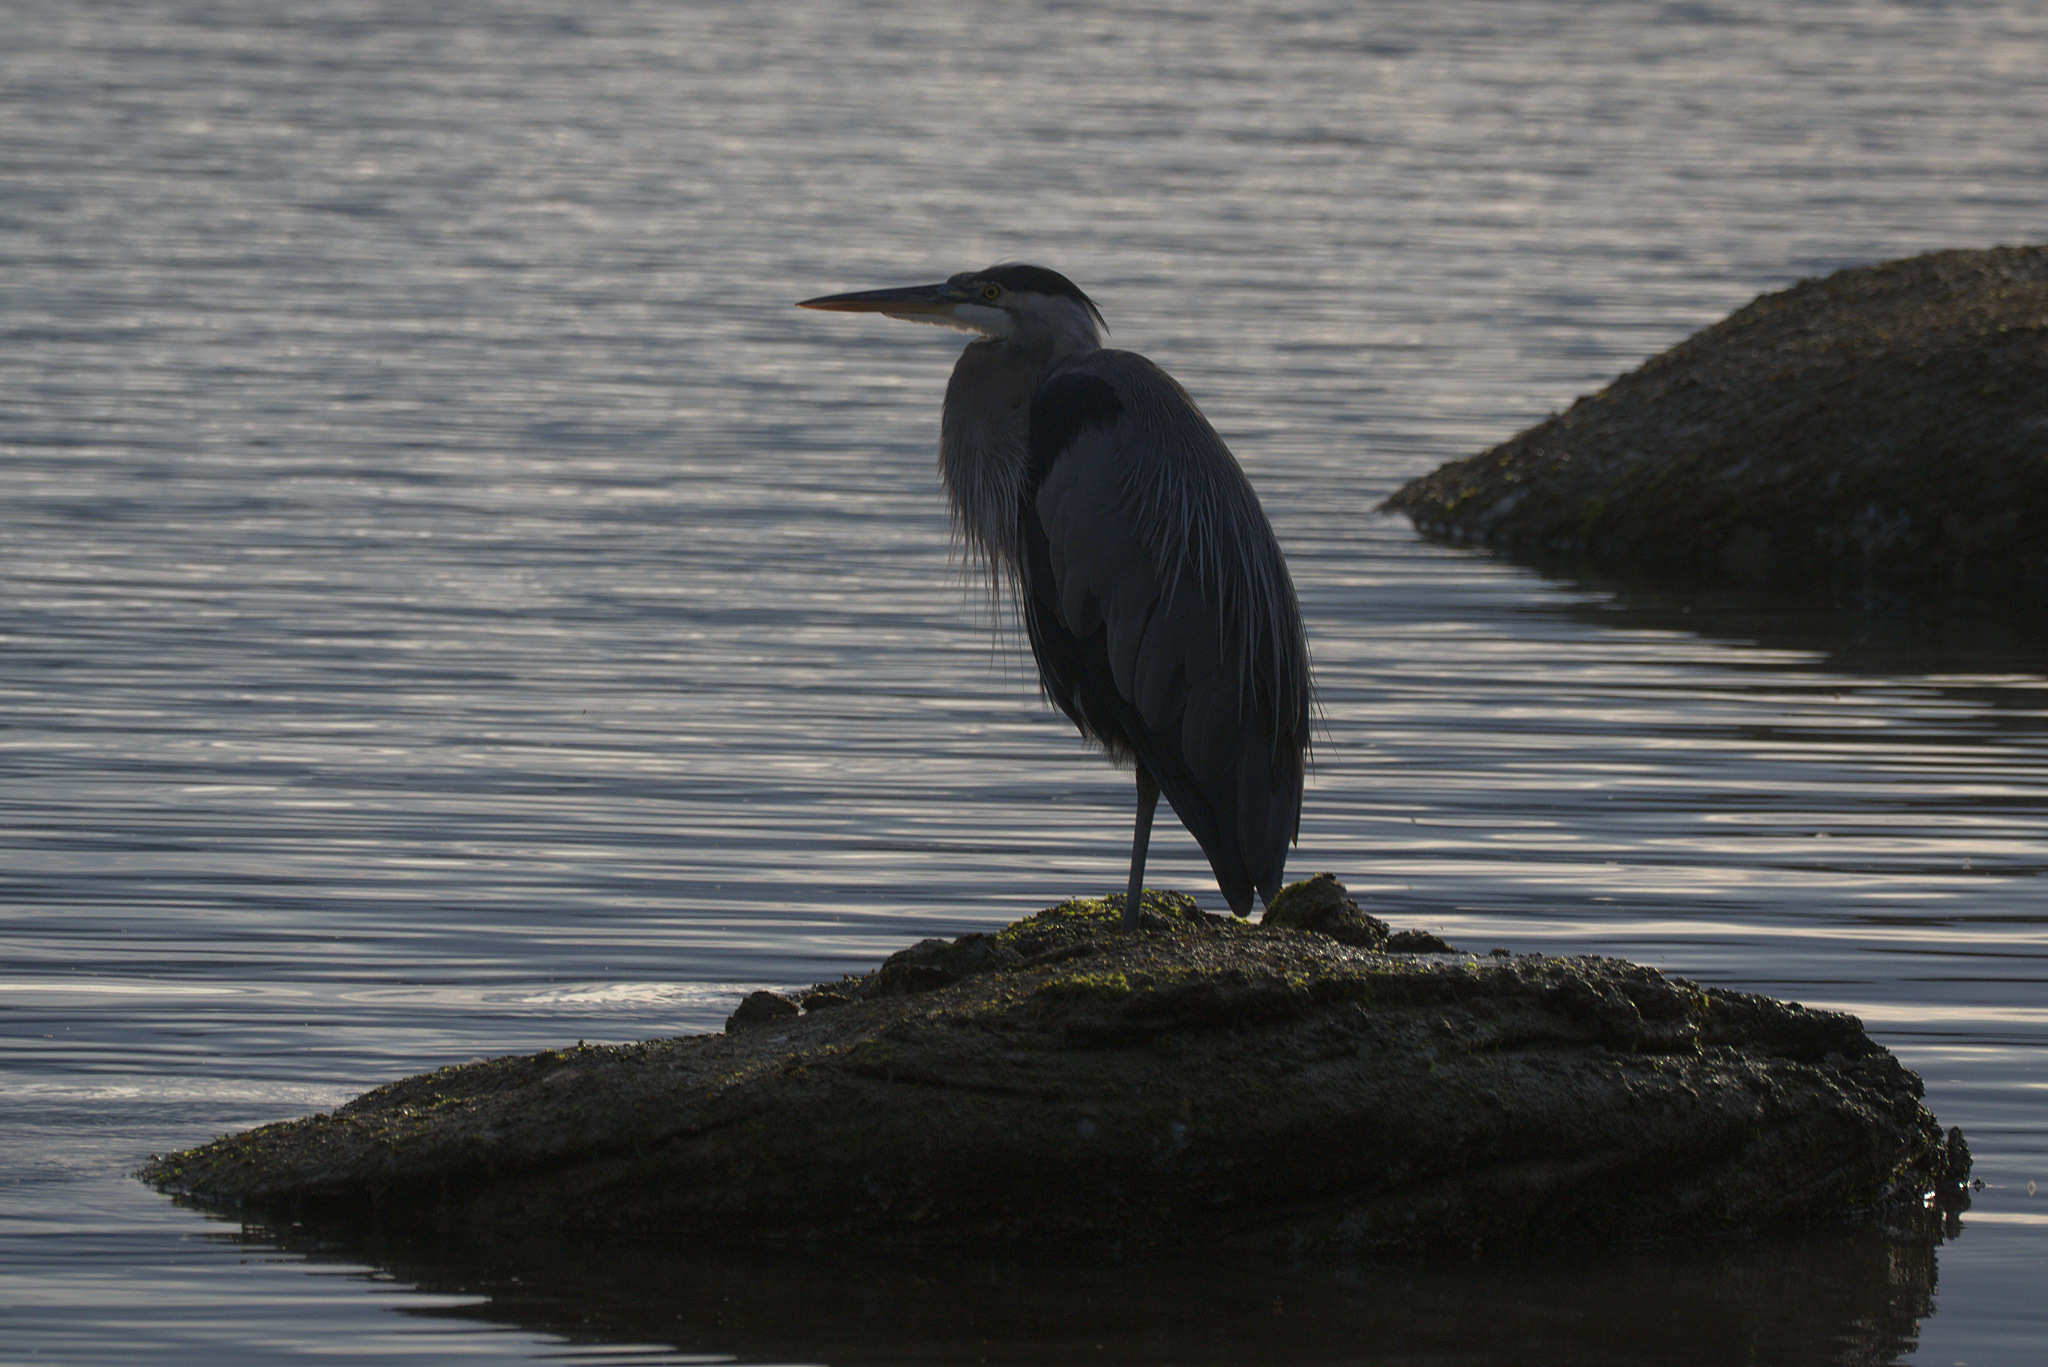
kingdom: Animalia
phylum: Chordata
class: Aves
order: Pelecaniformes
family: Ardeidae
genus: Ardea
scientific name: Ardea herodias
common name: Great blue heron
